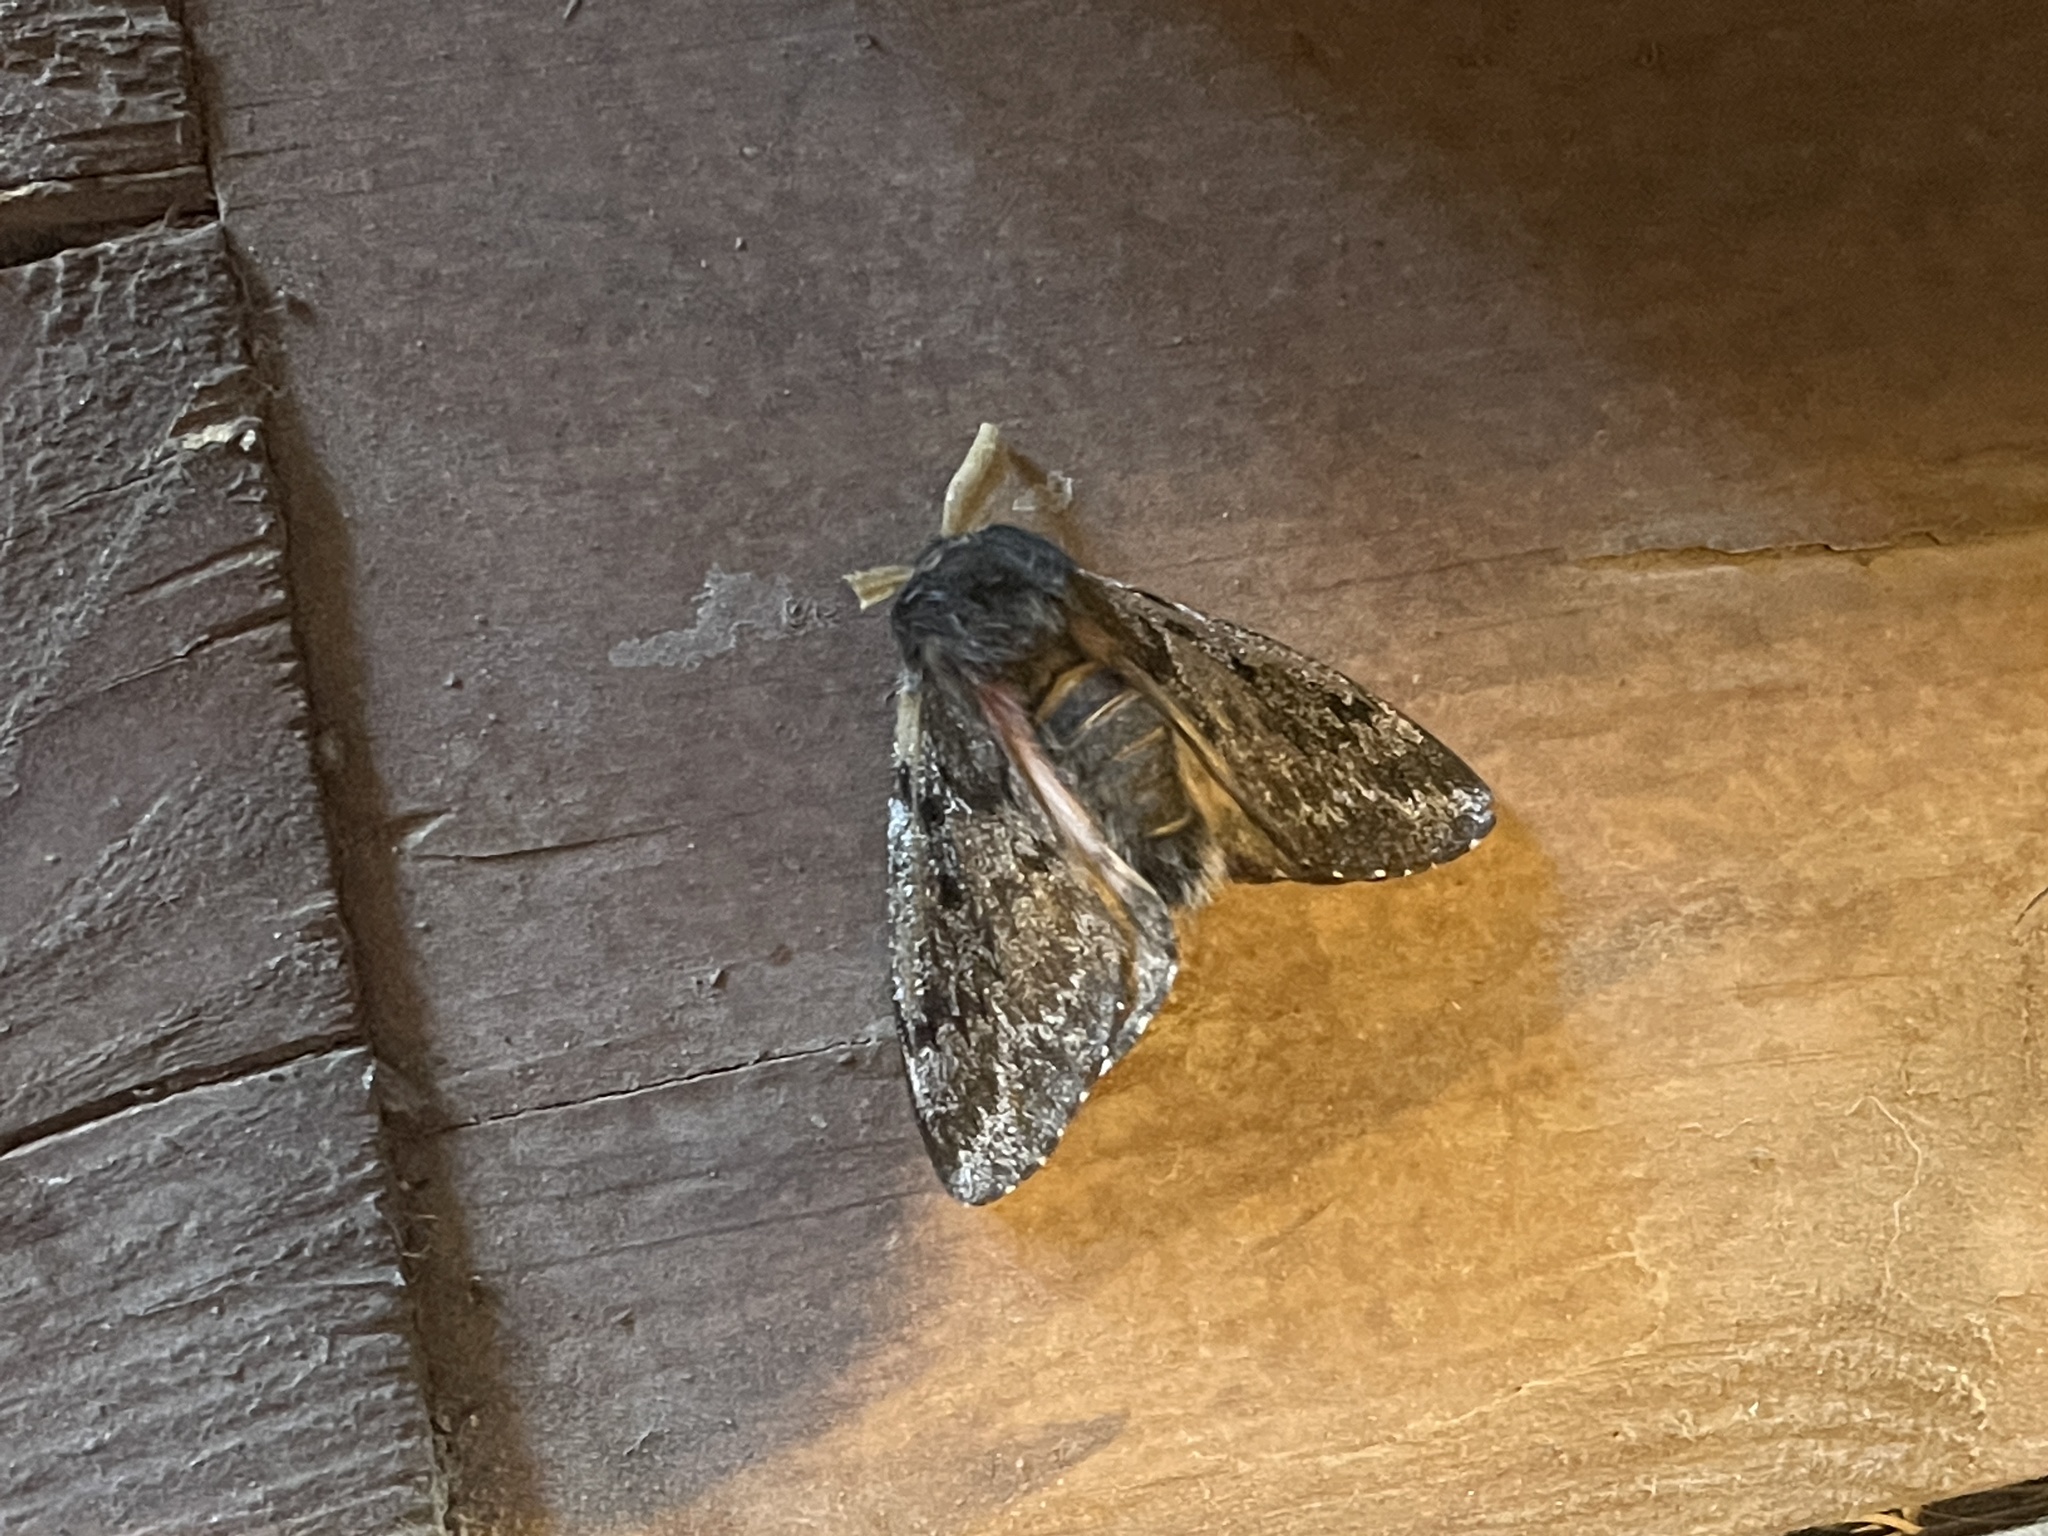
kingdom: Animalia
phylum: Arthropoda
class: Insecta
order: Lepidoptera
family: Saturniidae
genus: Coloradia
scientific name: Coloradia pandora
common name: Pandora pinemoth
